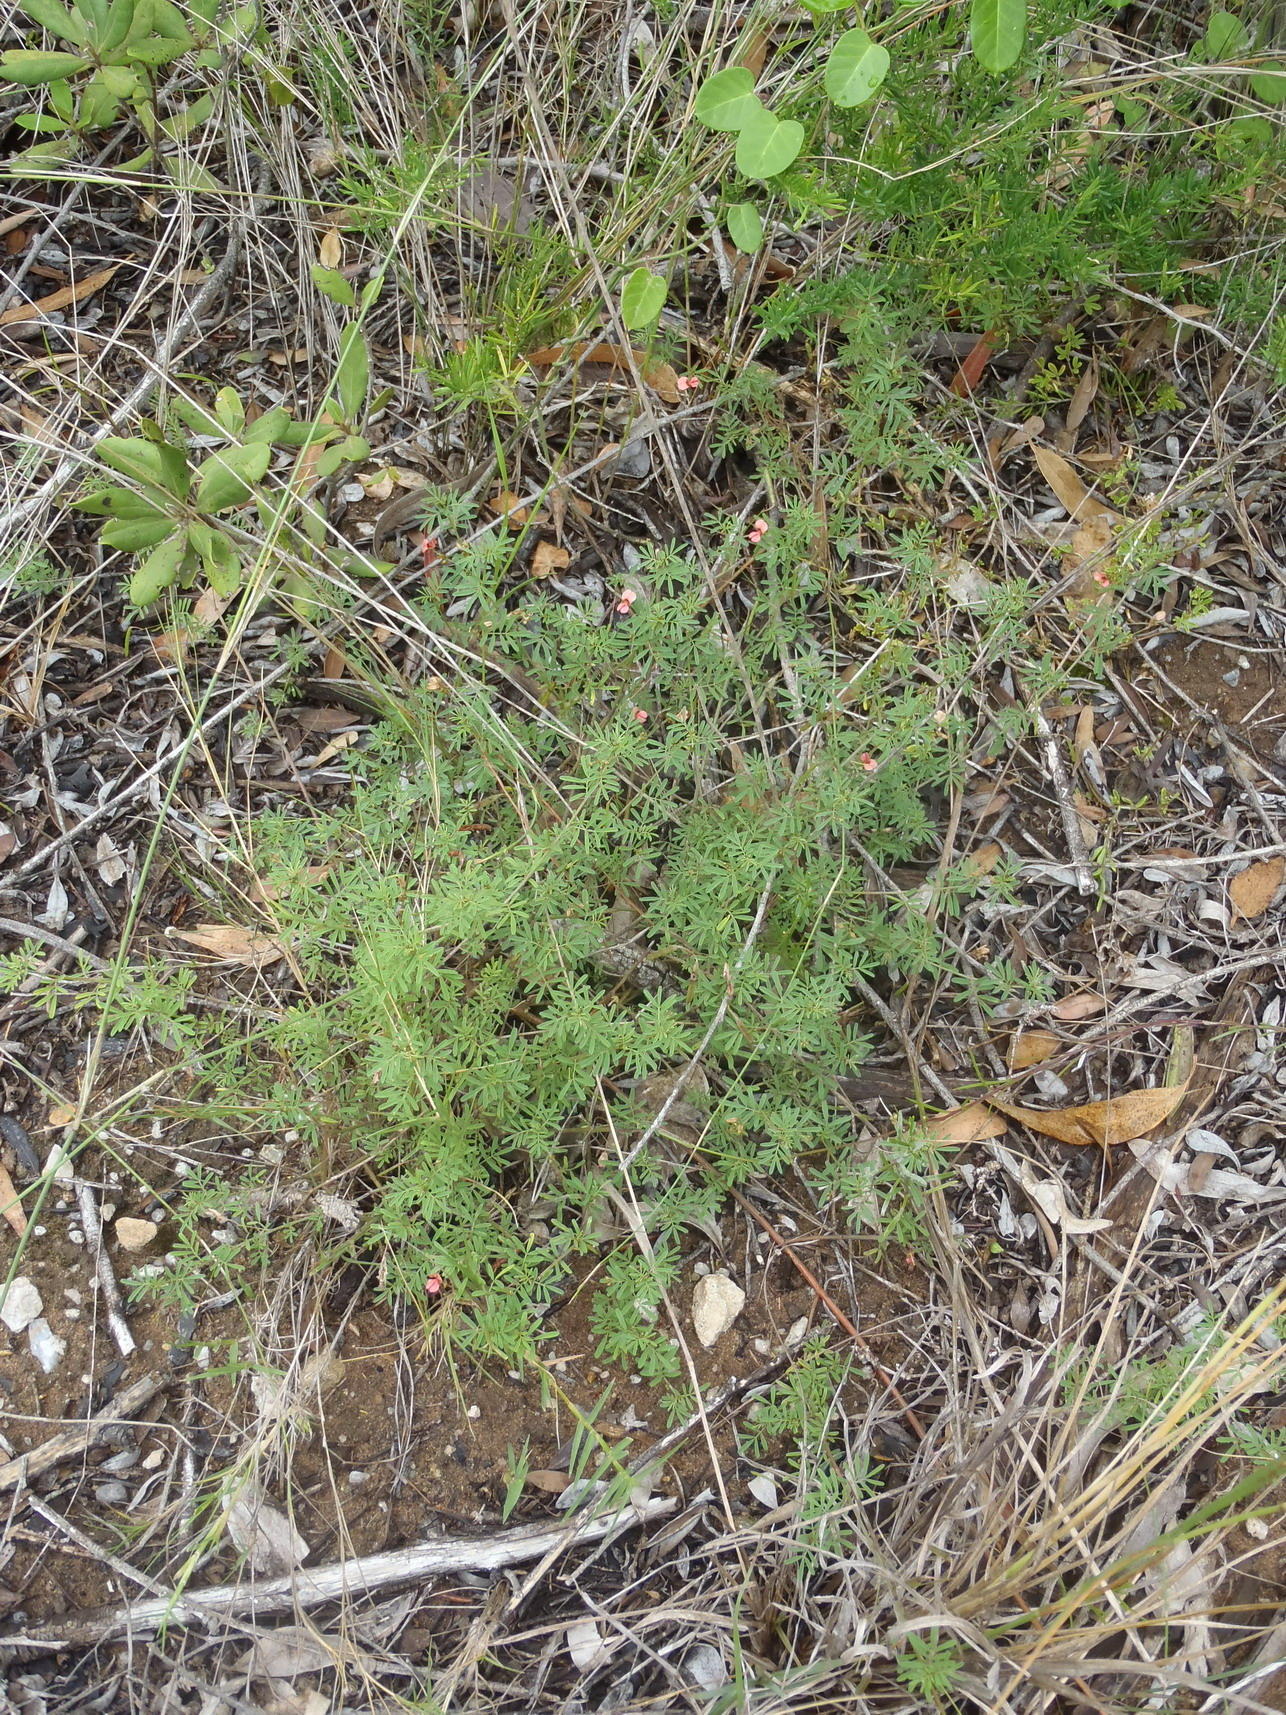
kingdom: Plantae
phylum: Tracheophyta
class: Magnoliopsida
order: Fabales
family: Fabaceae
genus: Indigofera
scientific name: Indigofera verrucosa
